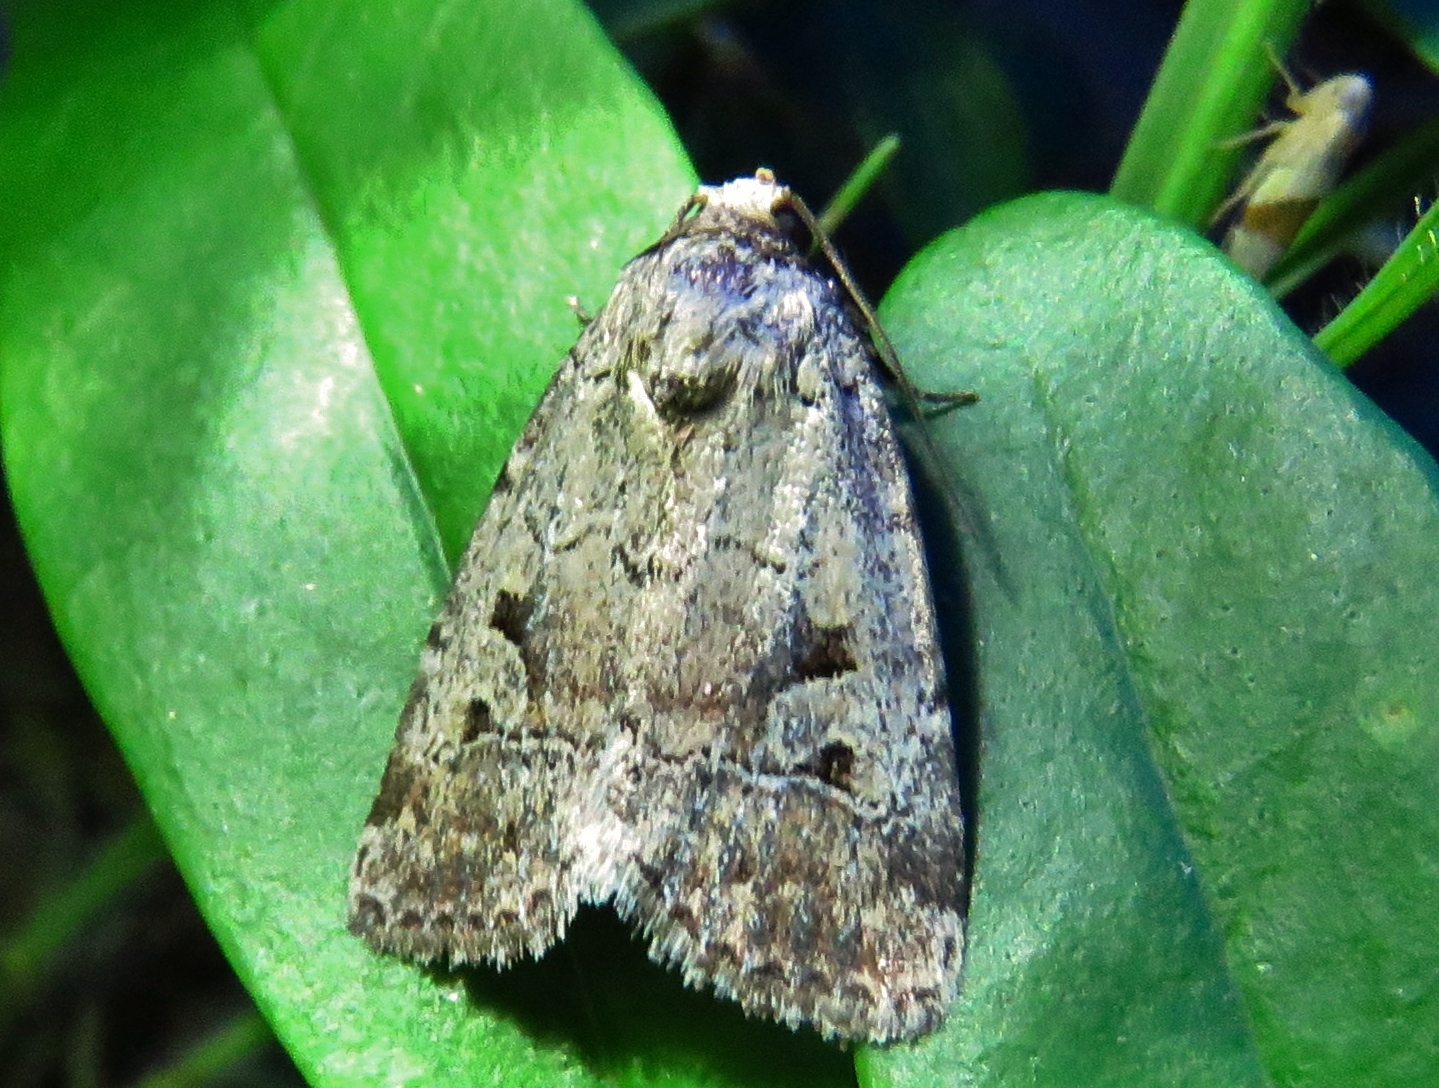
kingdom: Animalia
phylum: Arthropoda
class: Insecta
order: Lepidoptera
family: Noctuidae
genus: Elaphria
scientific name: Elaphria festivoides
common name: Festive midget
